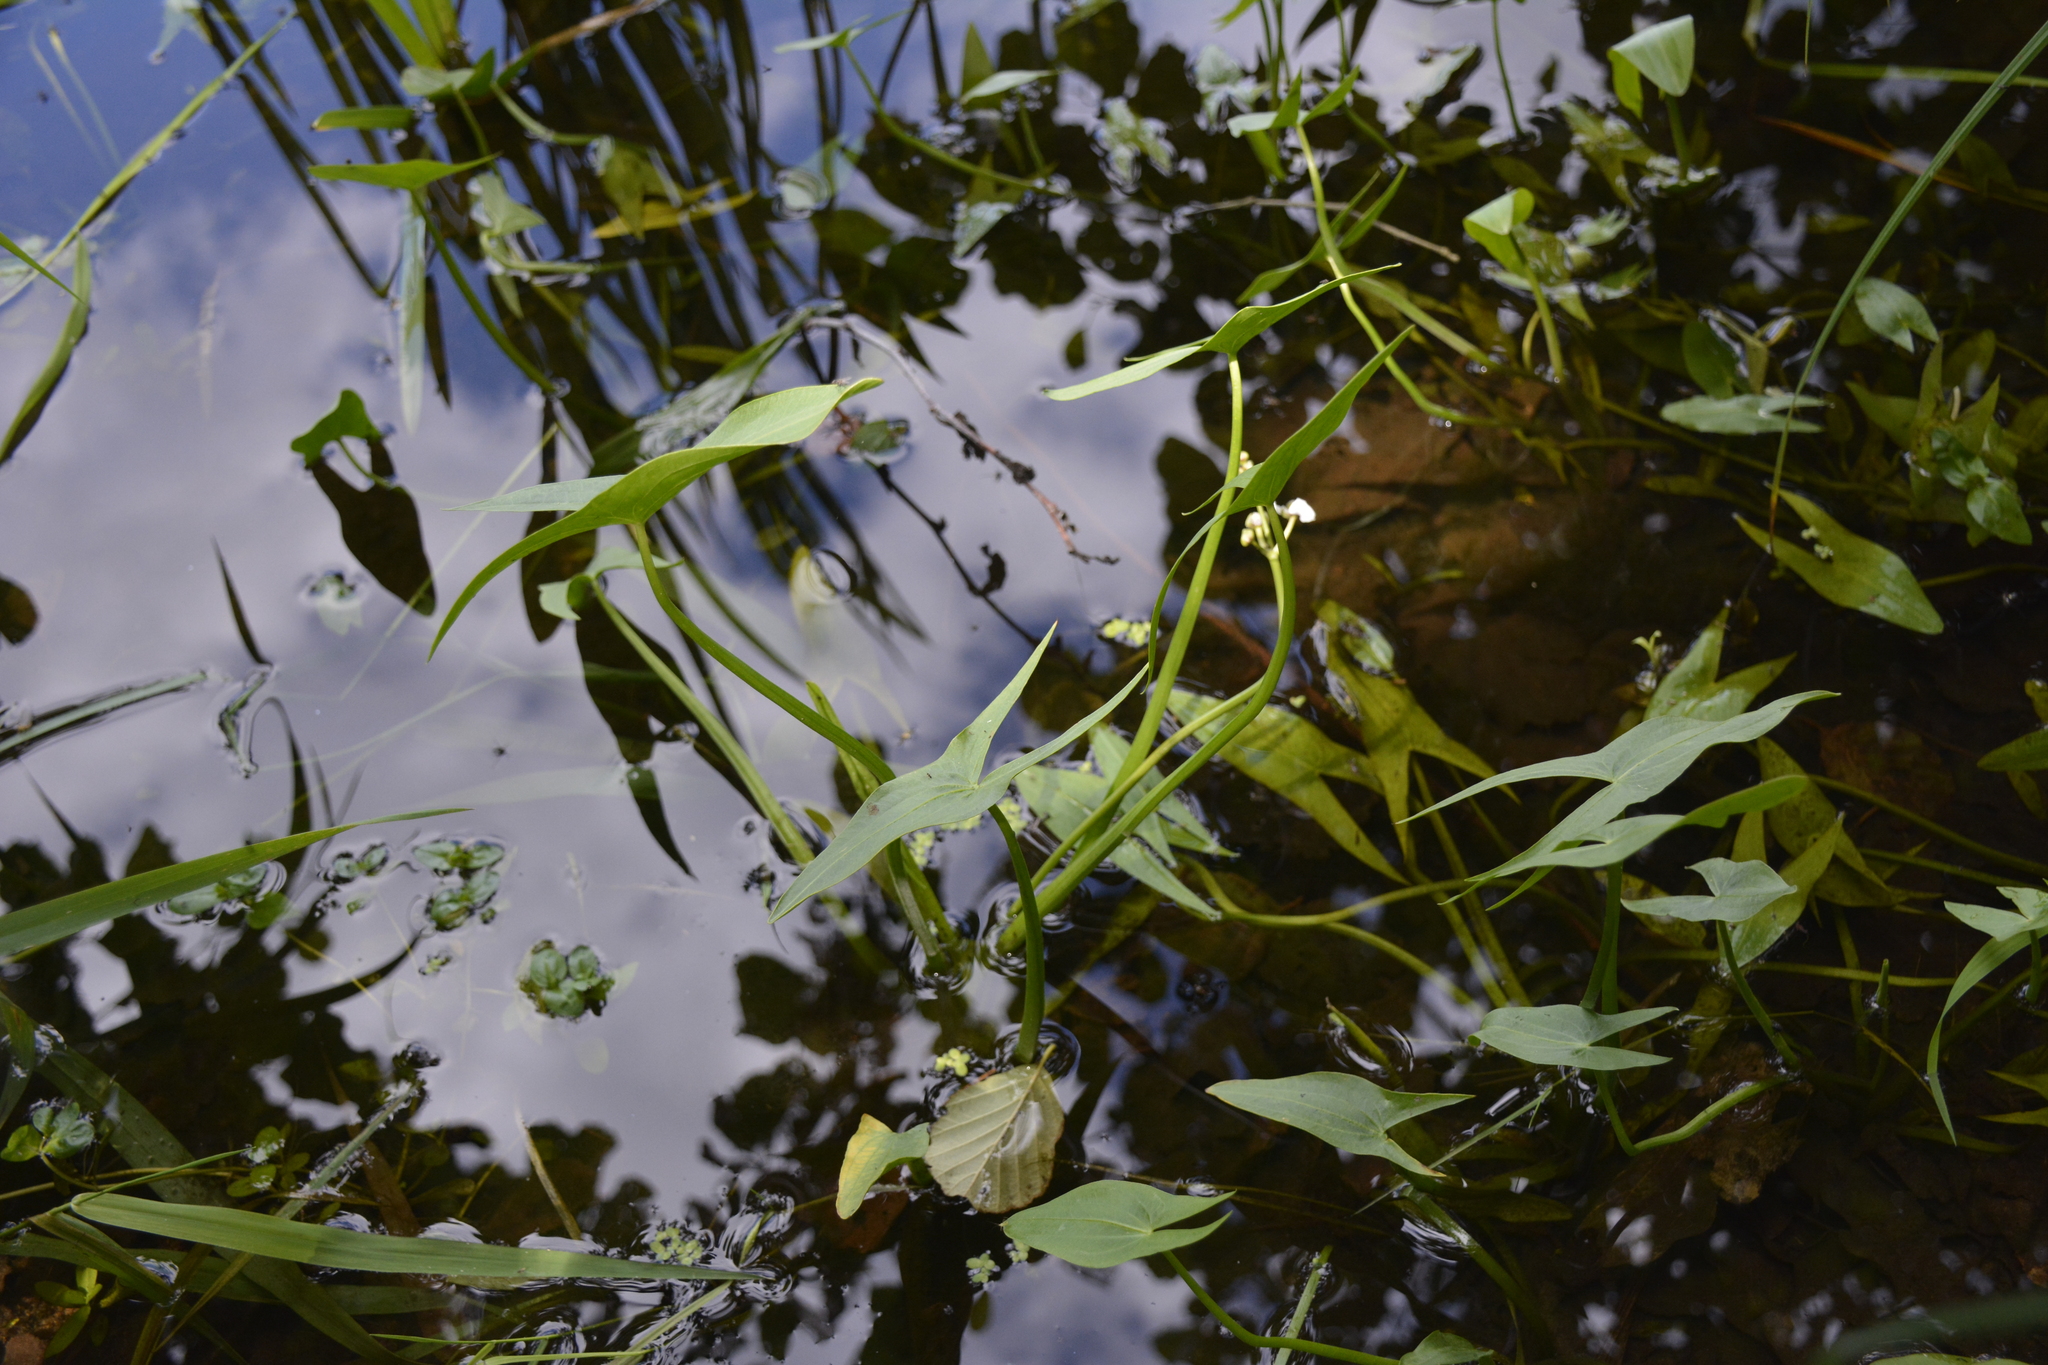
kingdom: Plantae
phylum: Tracheophyta
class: Liliopsida
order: Alismatales
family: Alismataceae
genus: Sagittaria
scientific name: Sagittaria sagittifolia
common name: Arrowhead
